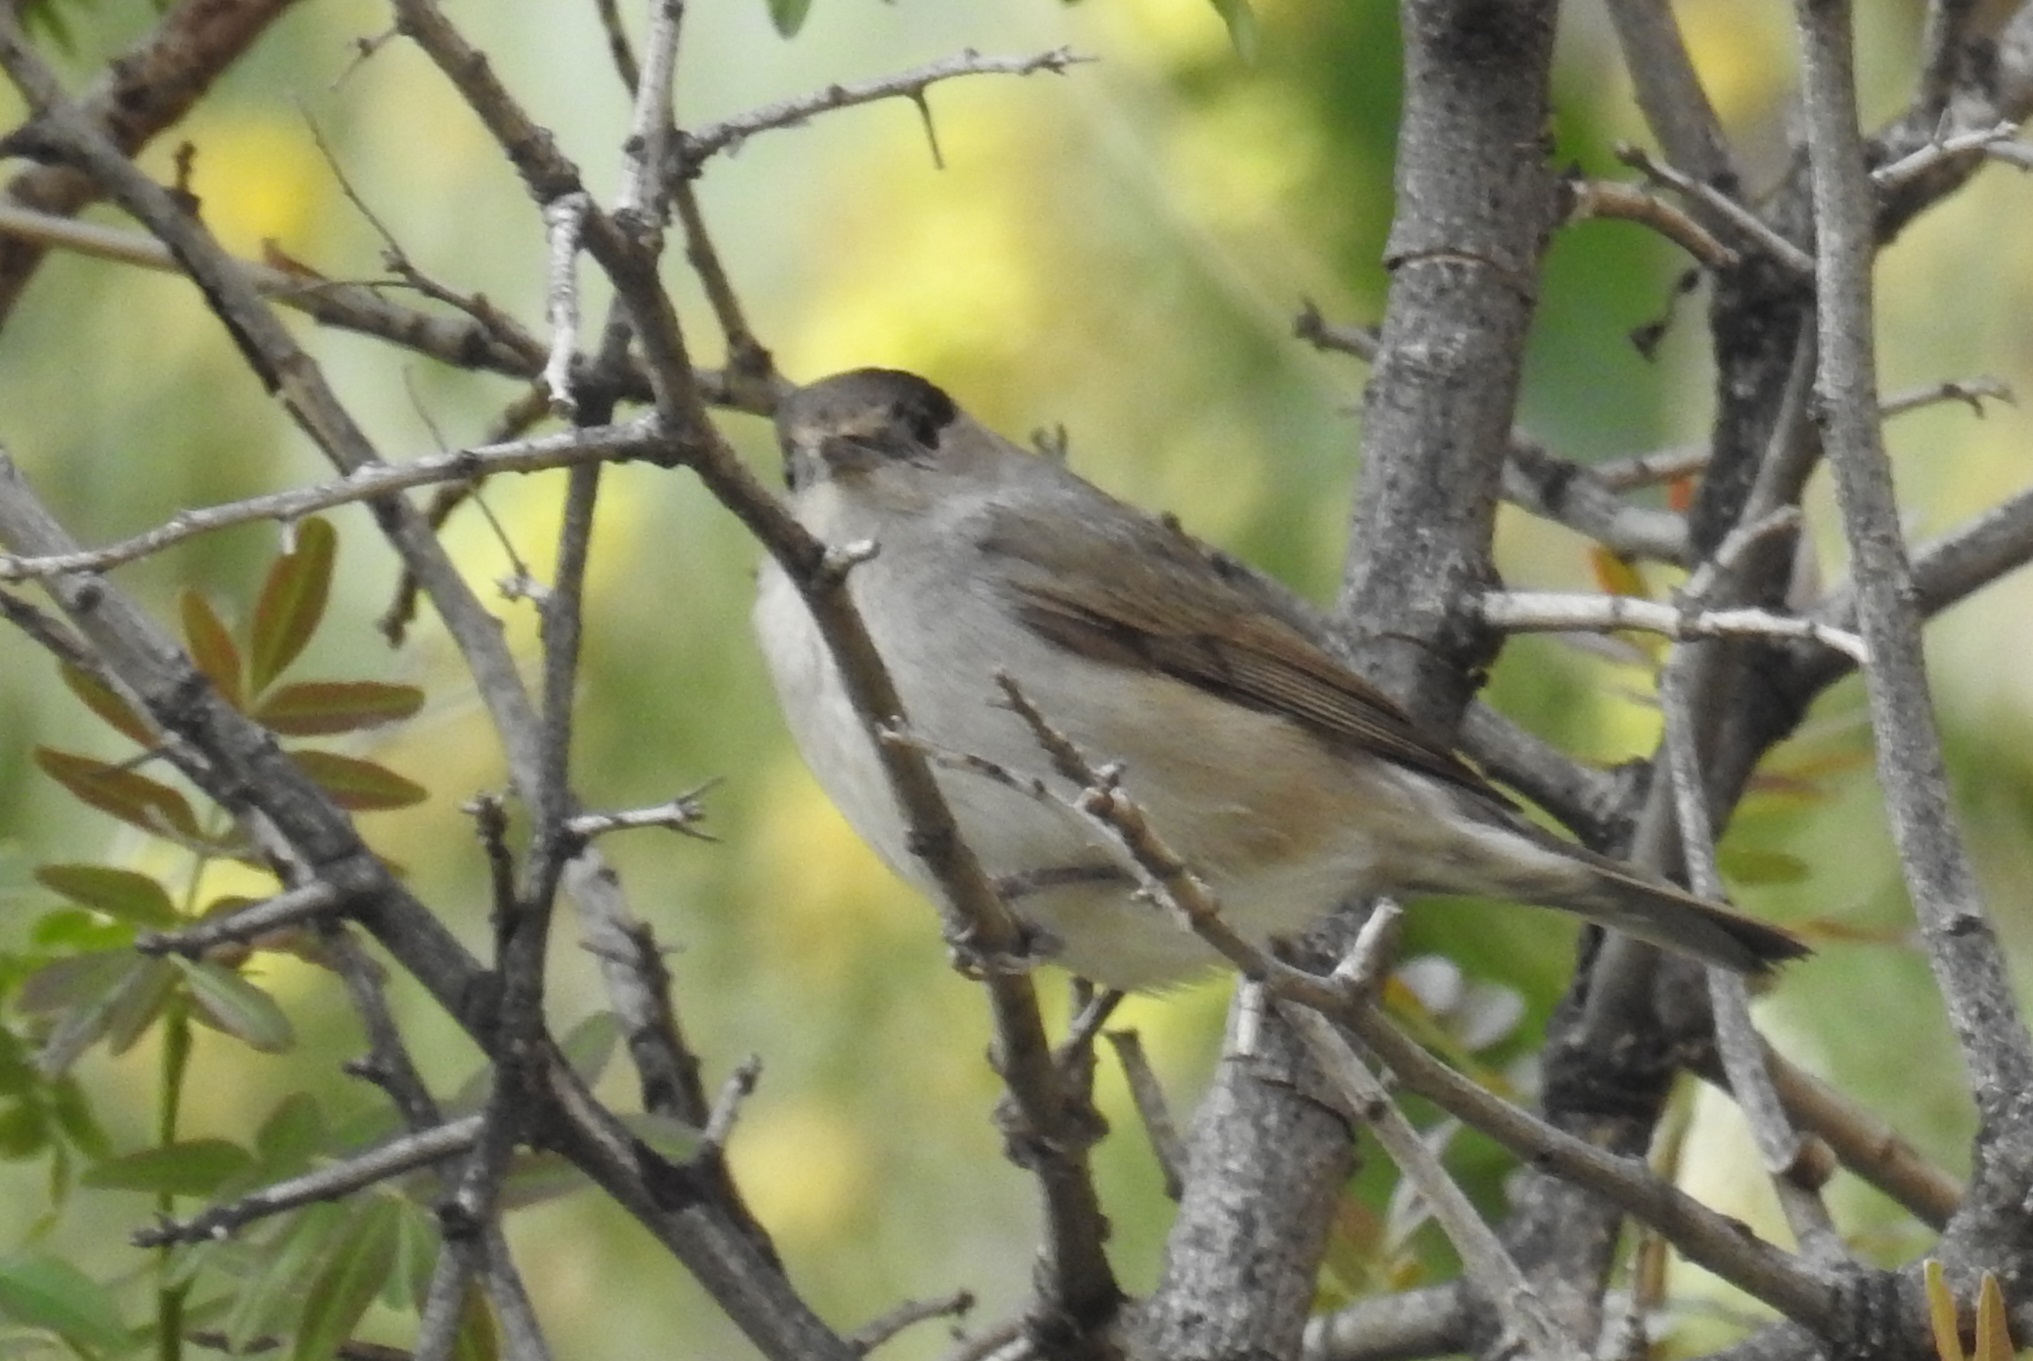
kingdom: Animalia
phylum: Chordata
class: Aves
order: Passeriformes
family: Sylviidae
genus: Sylvia
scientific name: Sylvia atricapilla
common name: Eurasian blackcap
